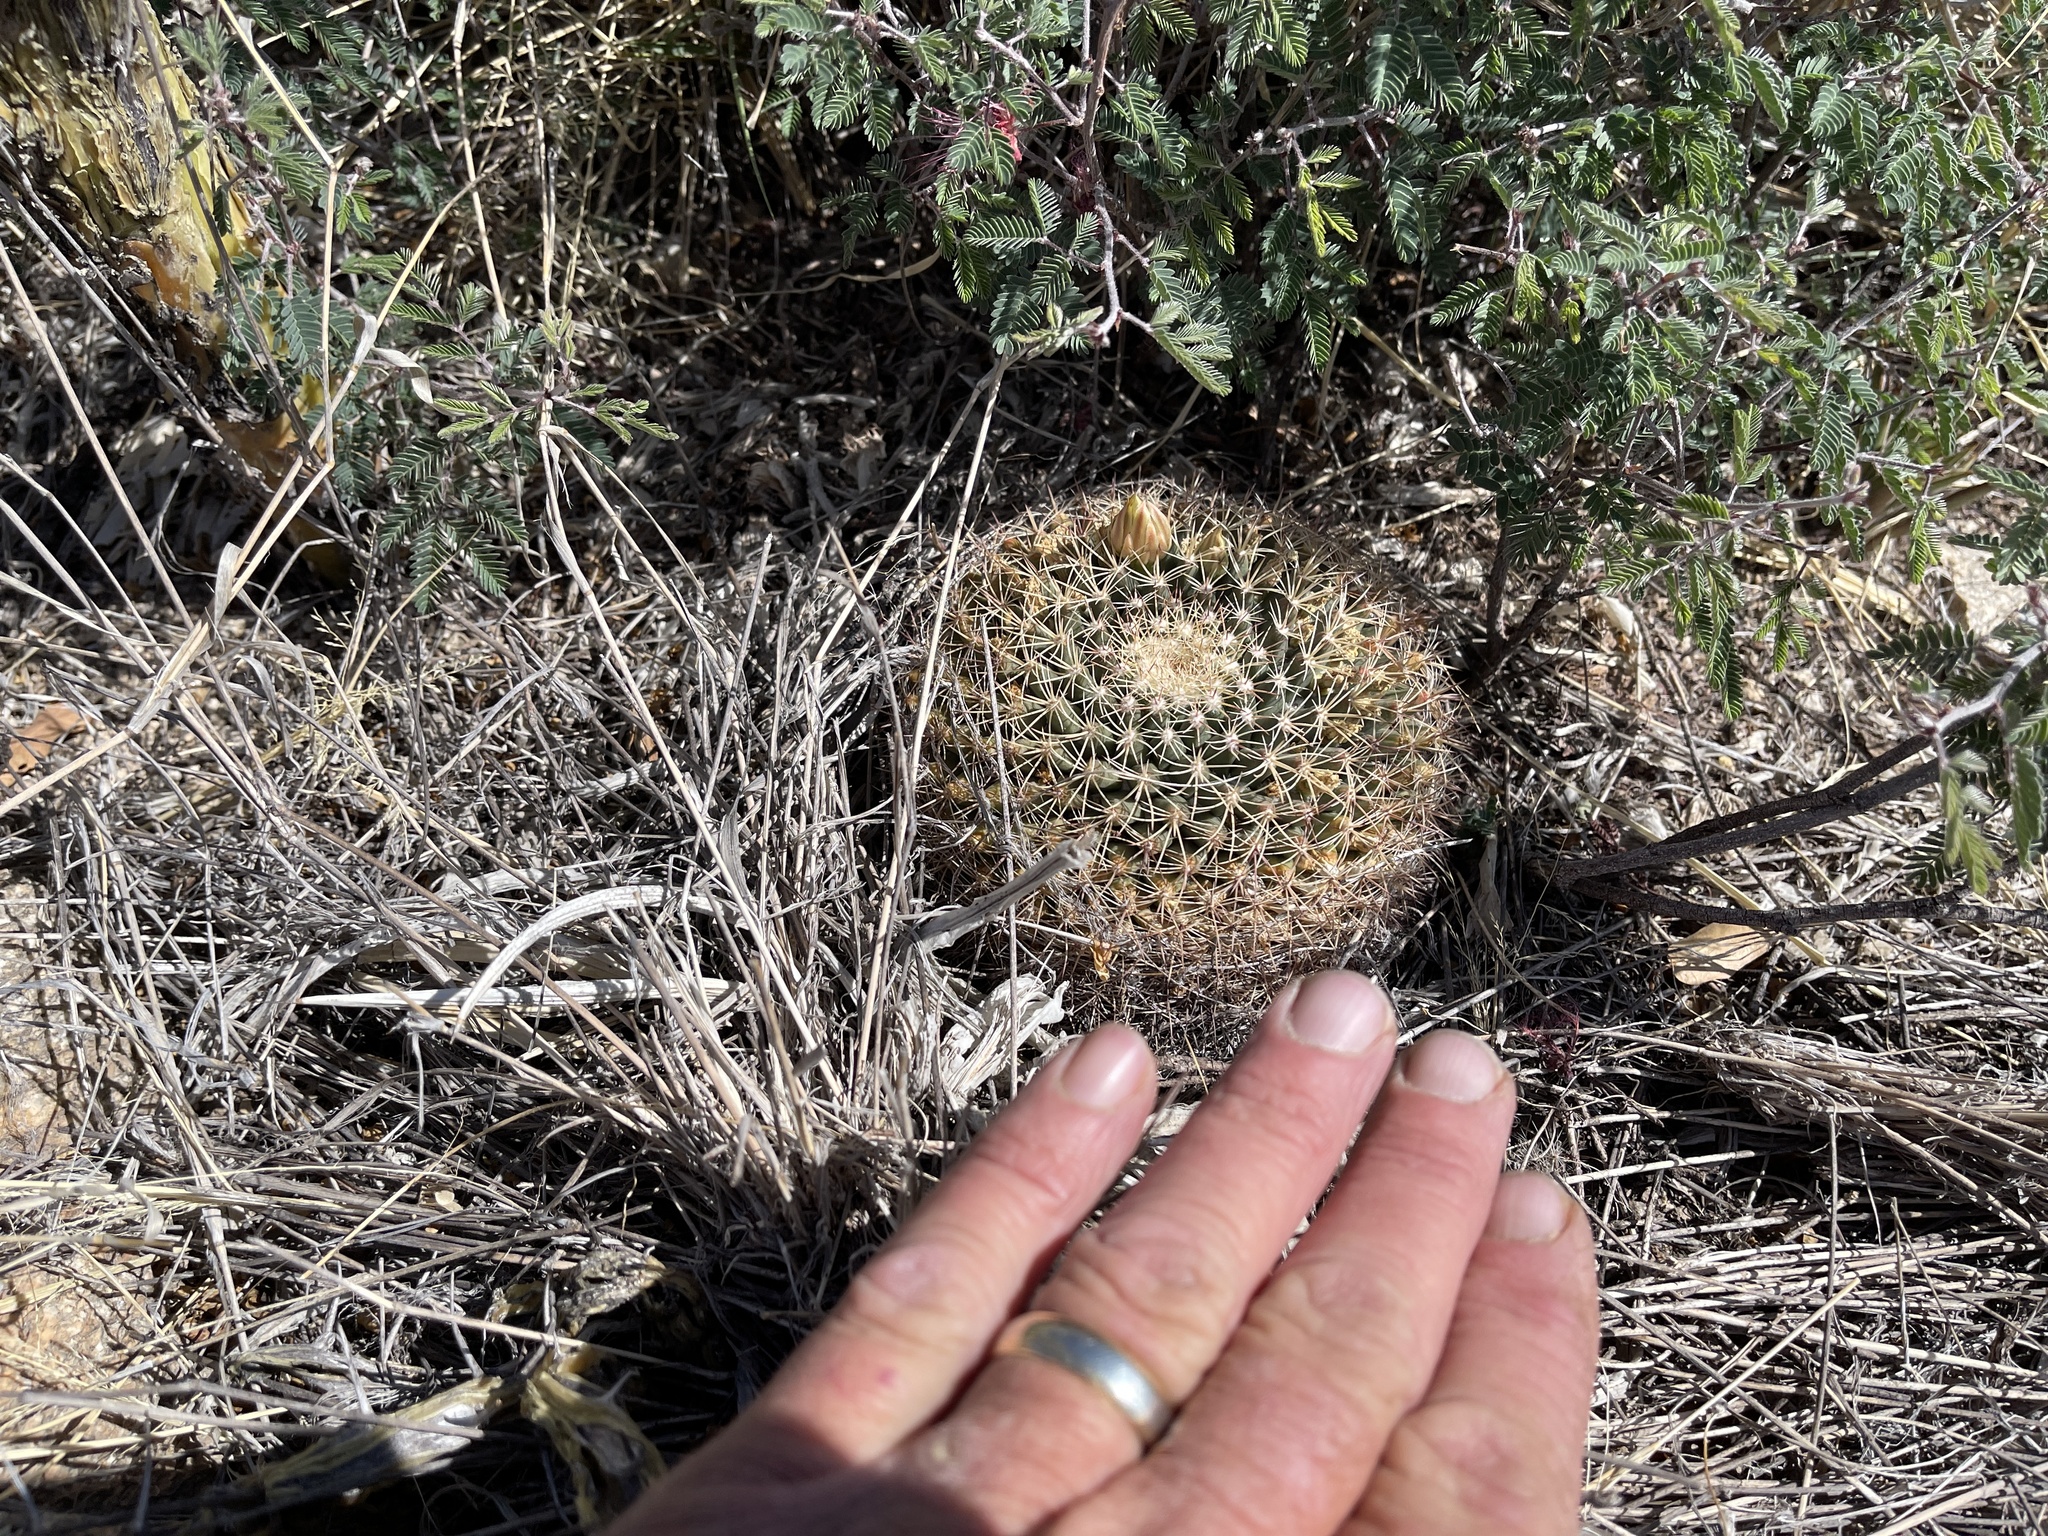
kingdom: Plantae
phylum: Tracheophyta
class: Magnoliopsida
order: Caryophyllales
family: Cactaceae
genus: Mammillaria
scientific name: Mammillaria heyderi
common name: Little nipple cactus
